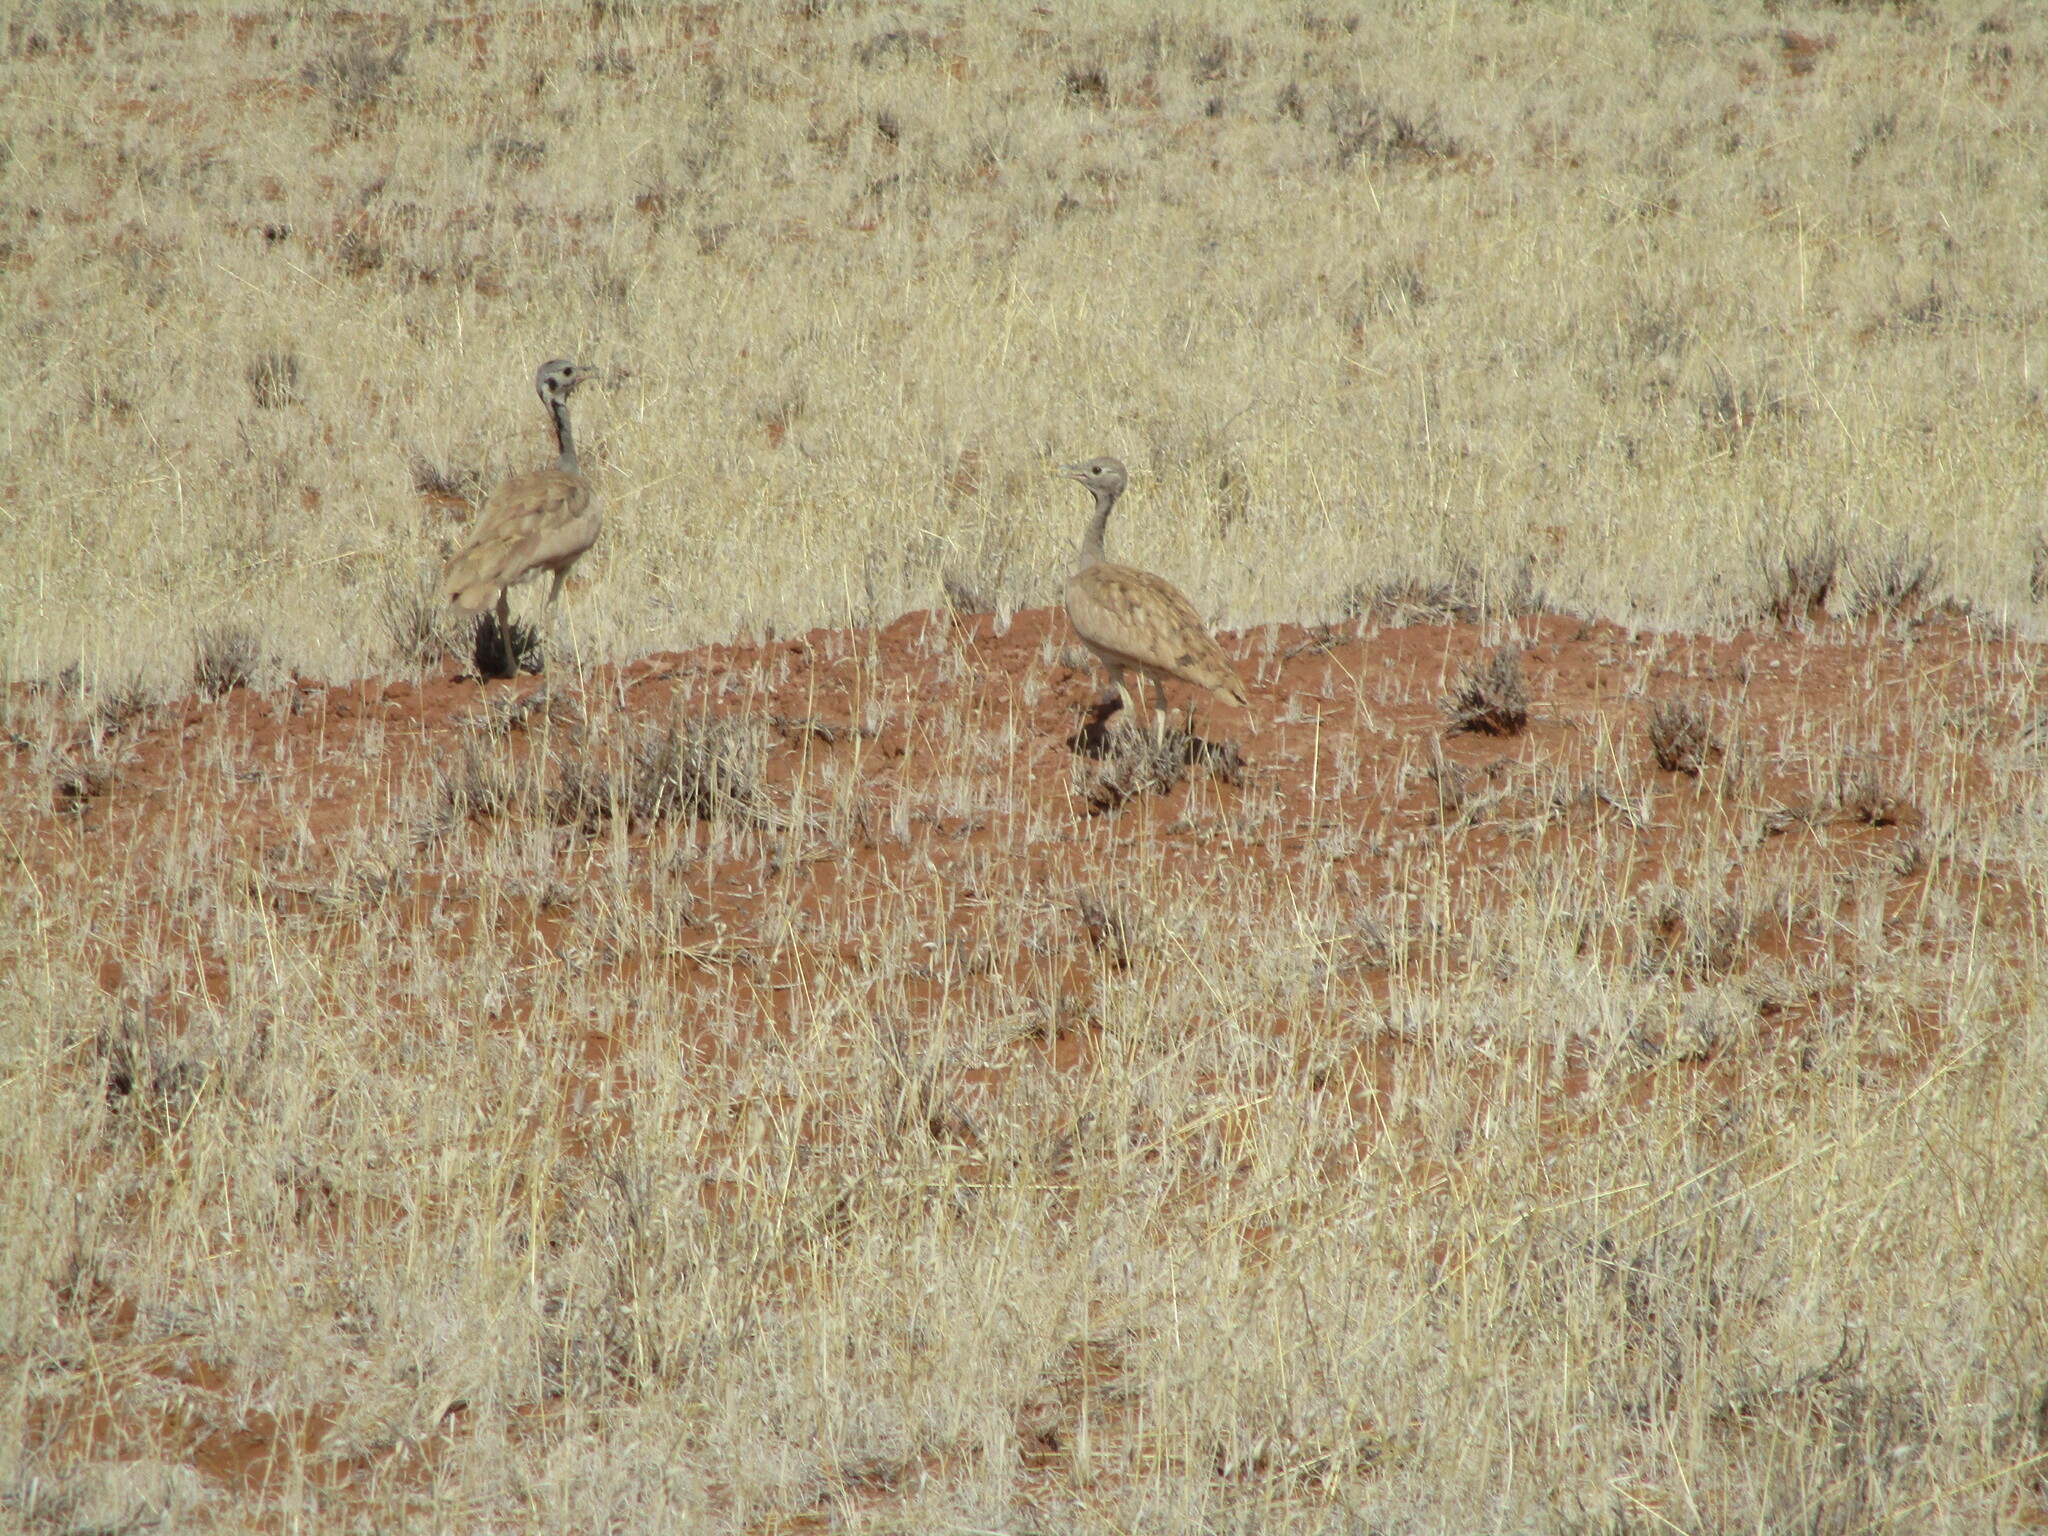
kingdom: Animalia
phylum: Chordata
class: Aves
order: Otidiformes
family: Otididae
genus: Heterotetrax
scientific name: Heterotetrax rueppelii
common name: Rüppell's korhaan
